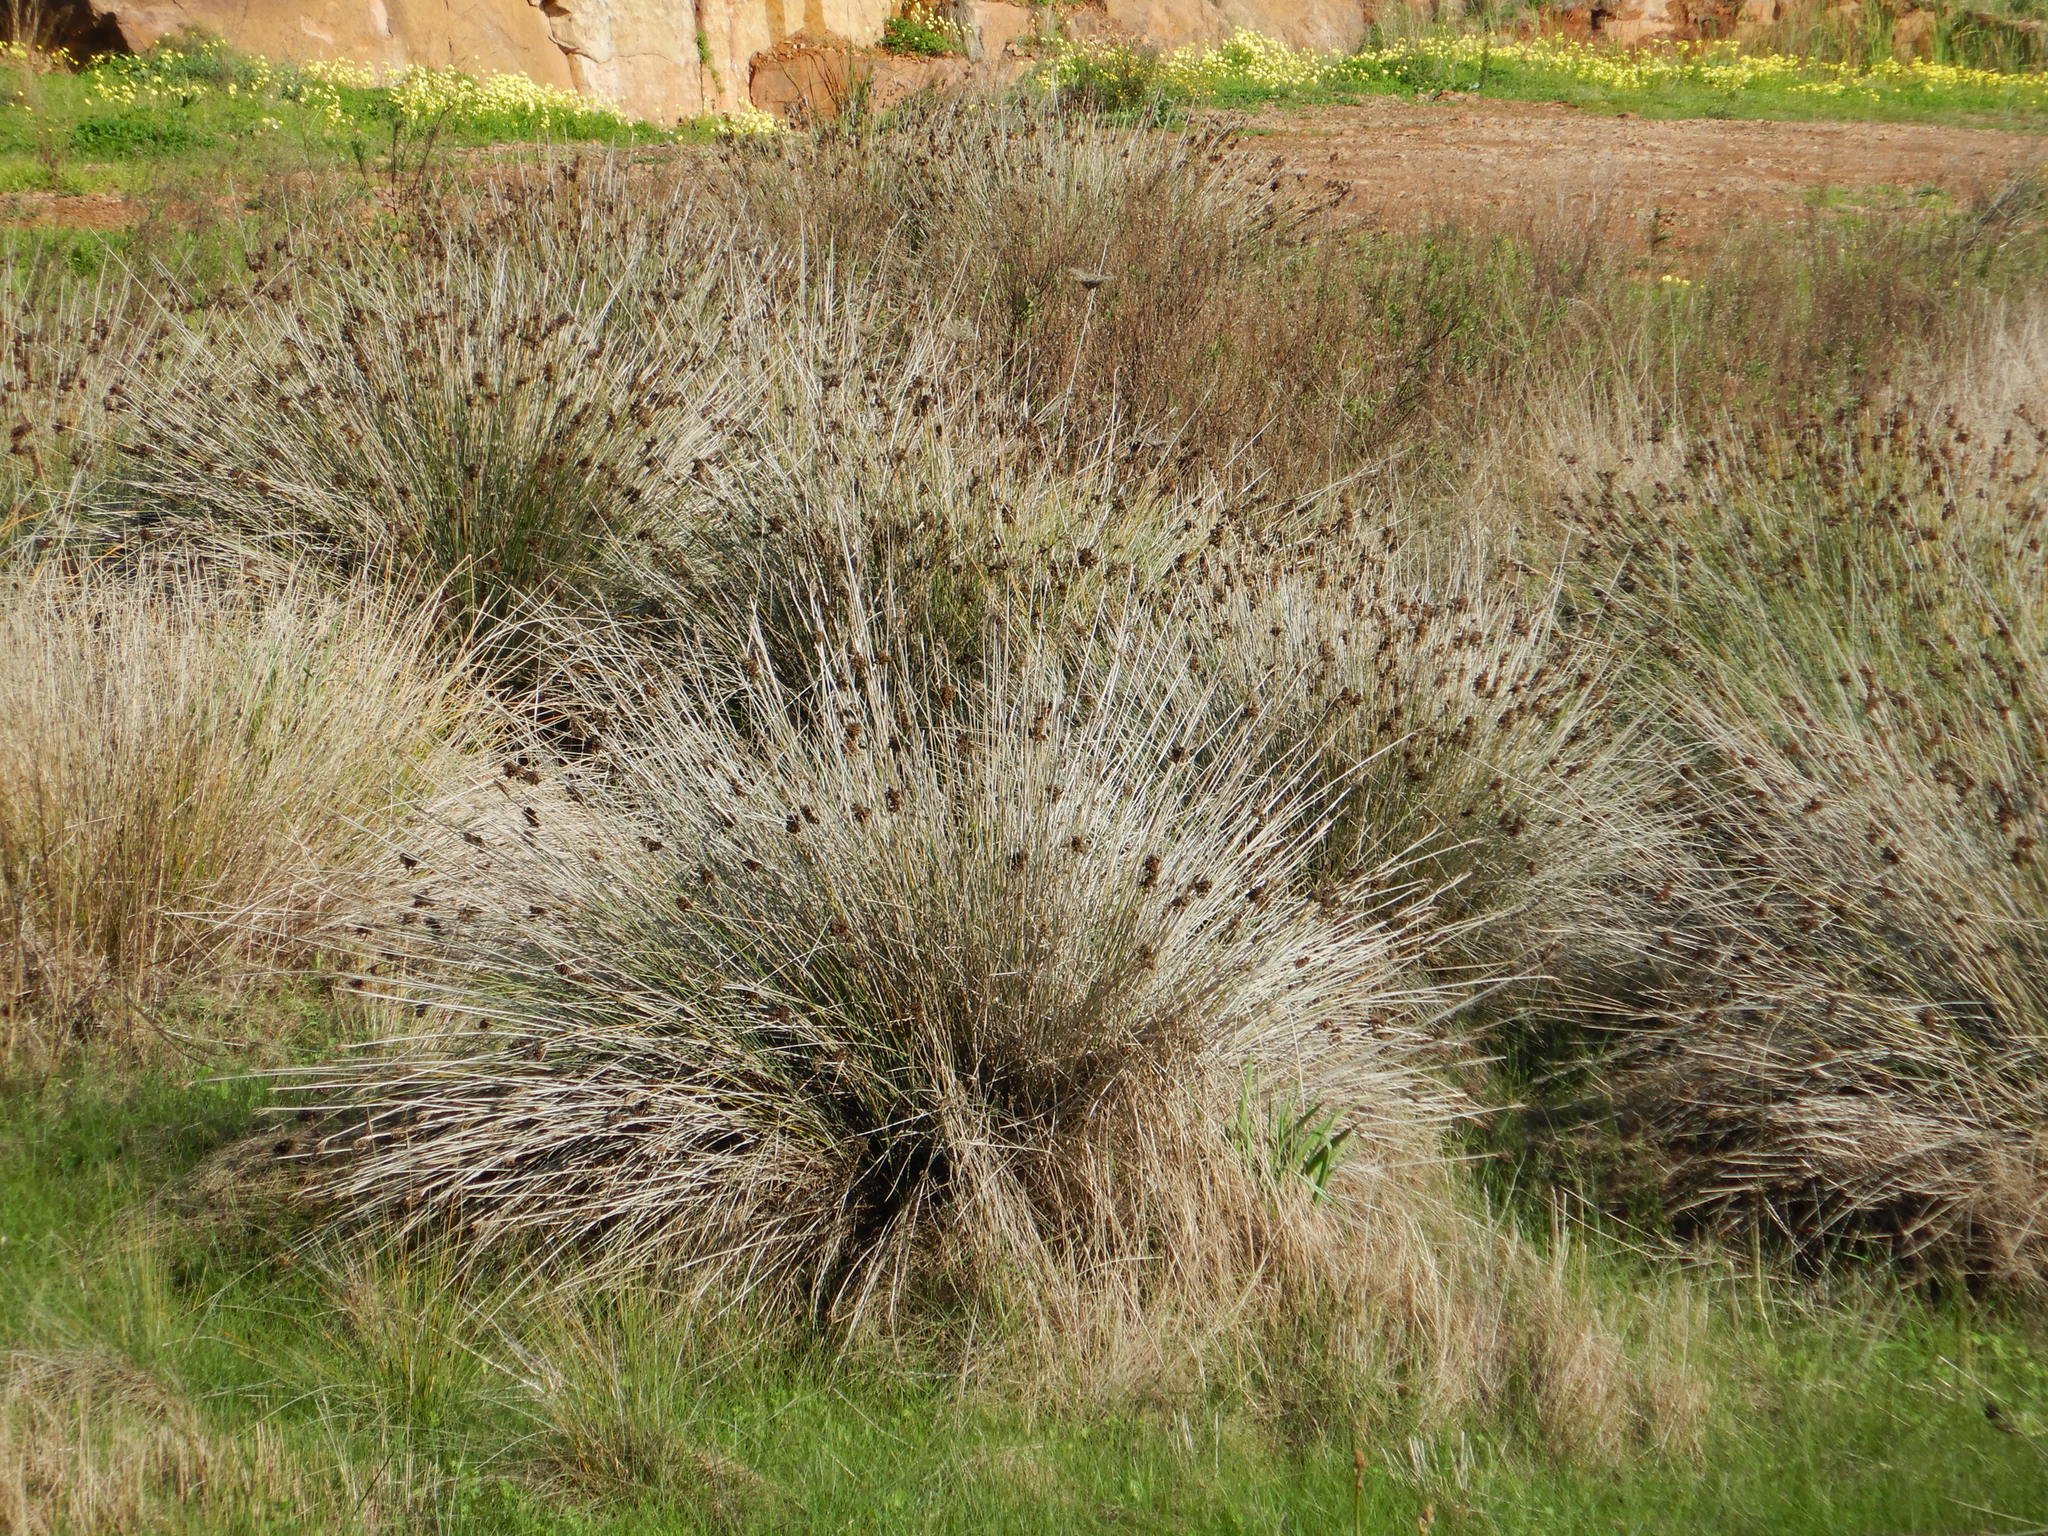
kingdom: Plantae
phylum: Tracheophyta
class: Liliopsida
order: Poales
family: Juncaceae
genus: Juncus
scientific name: Juncus acutus
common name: Sharp rush
